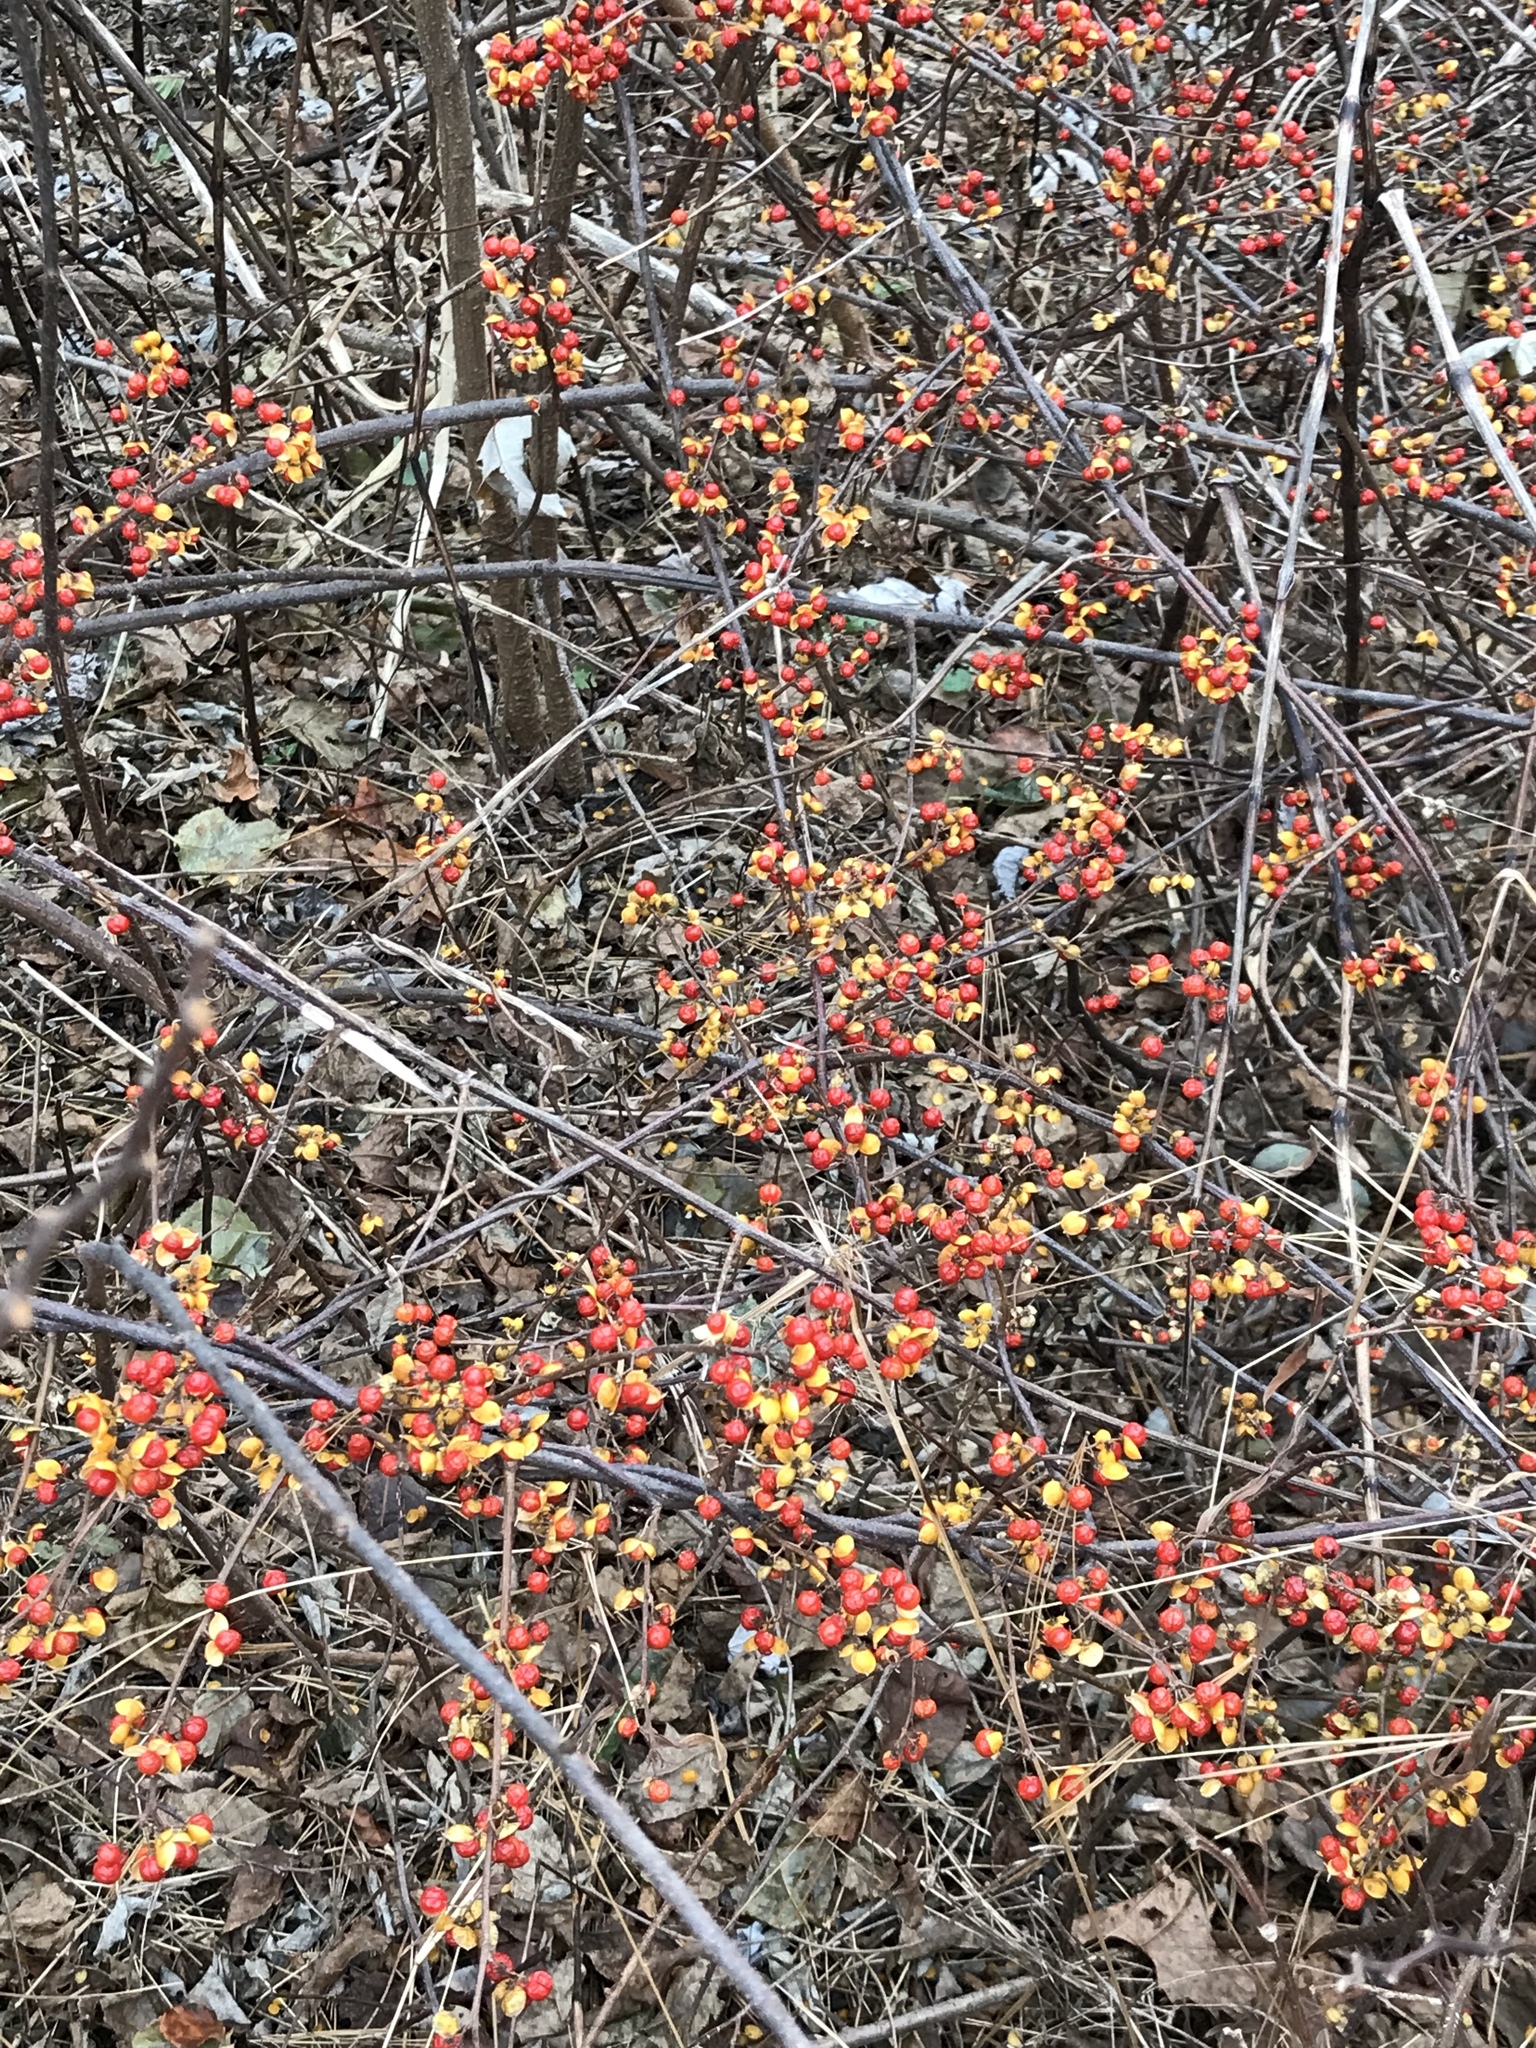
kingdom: Plantae
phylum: Tracheophyta
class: Magnoliopsida
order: Celastrales
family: Celastraceae
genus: Celastrus
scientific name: Celastrus orbiculatus
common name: Oriental bittersweet
